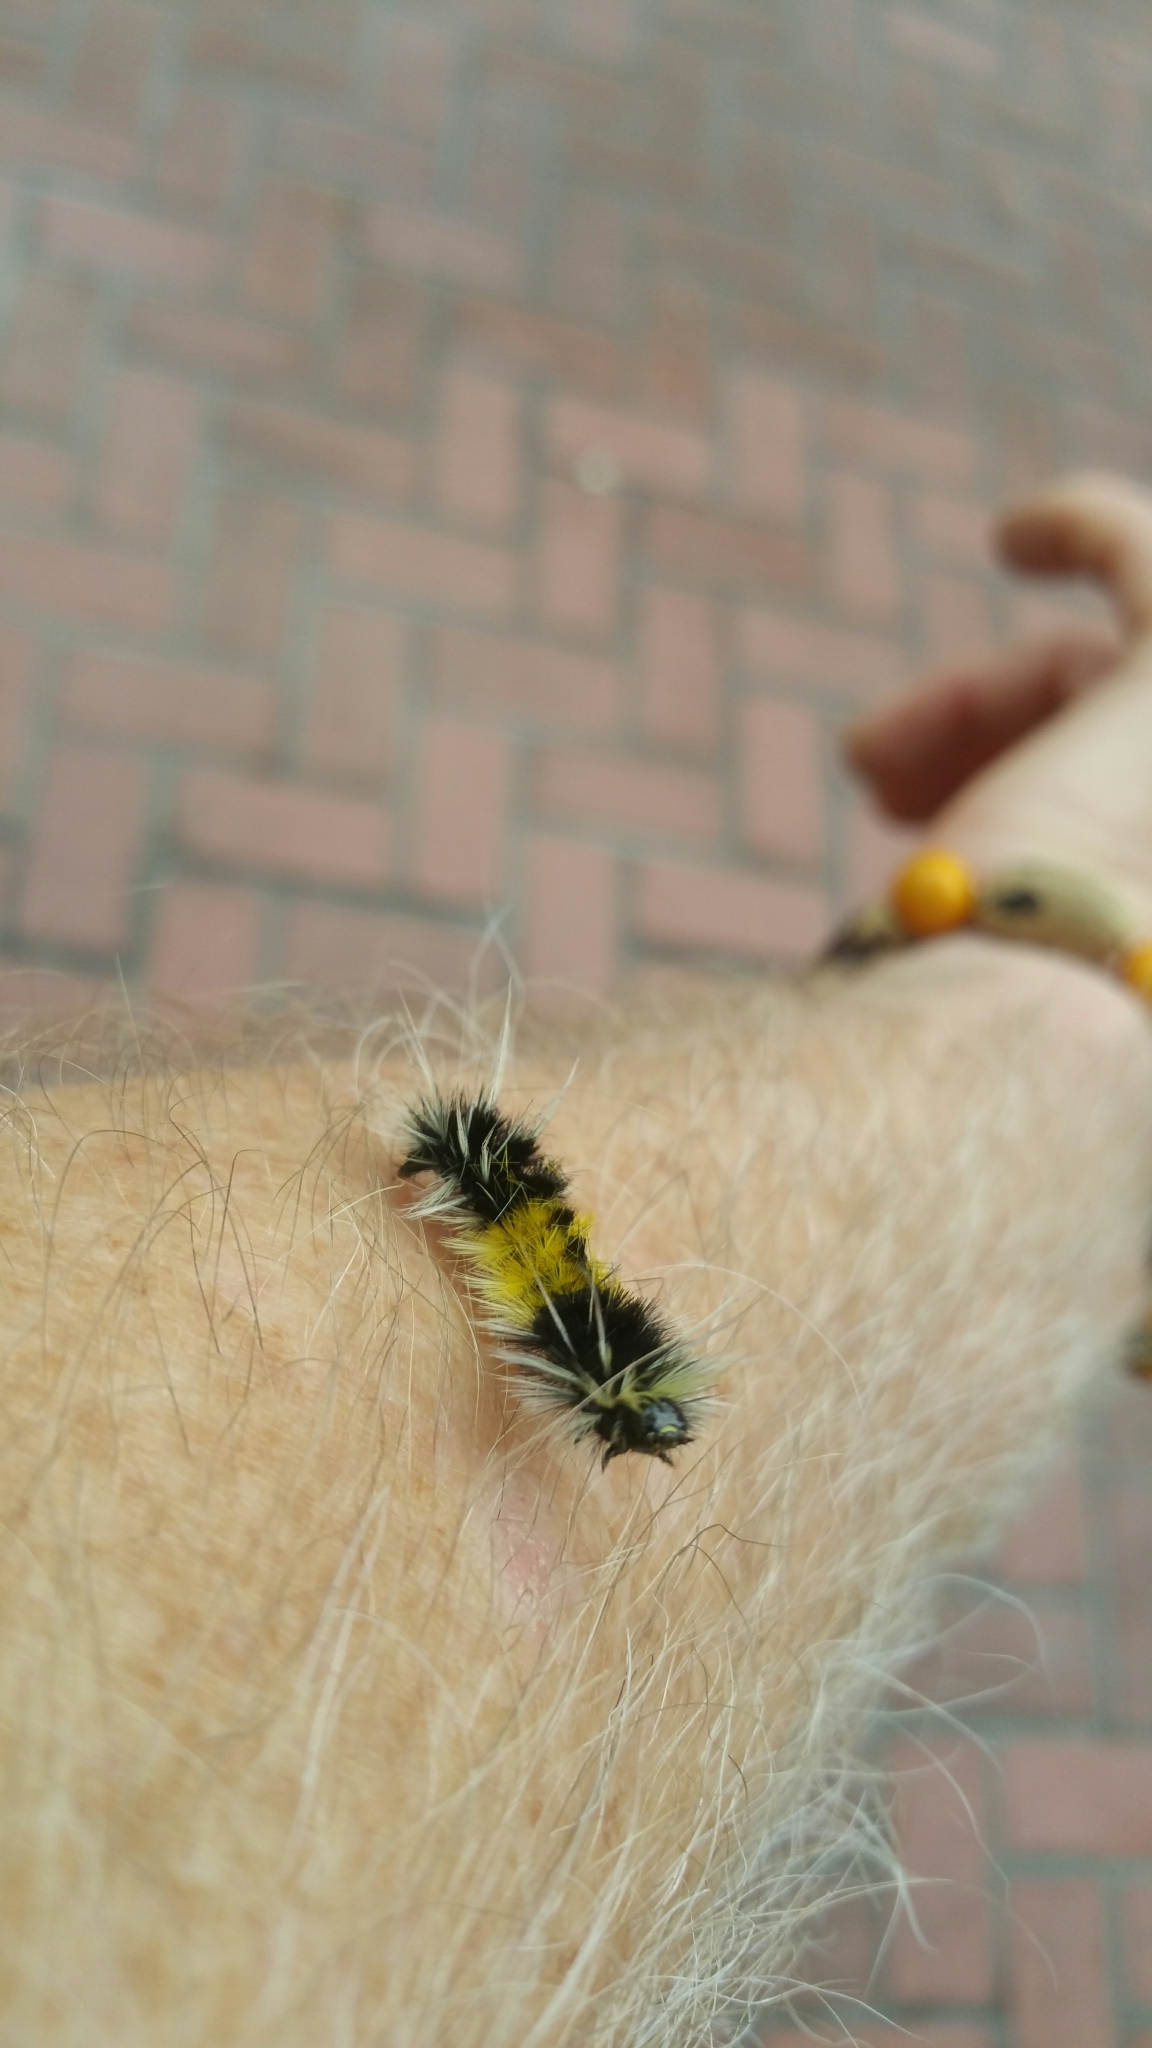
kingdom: Animalia
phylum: Arthropoda
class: Insecta
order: Lepidoptera
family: Erebidae
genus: Lophocampa
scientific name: Lophocampa maculata
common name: Spotted tussock moth
